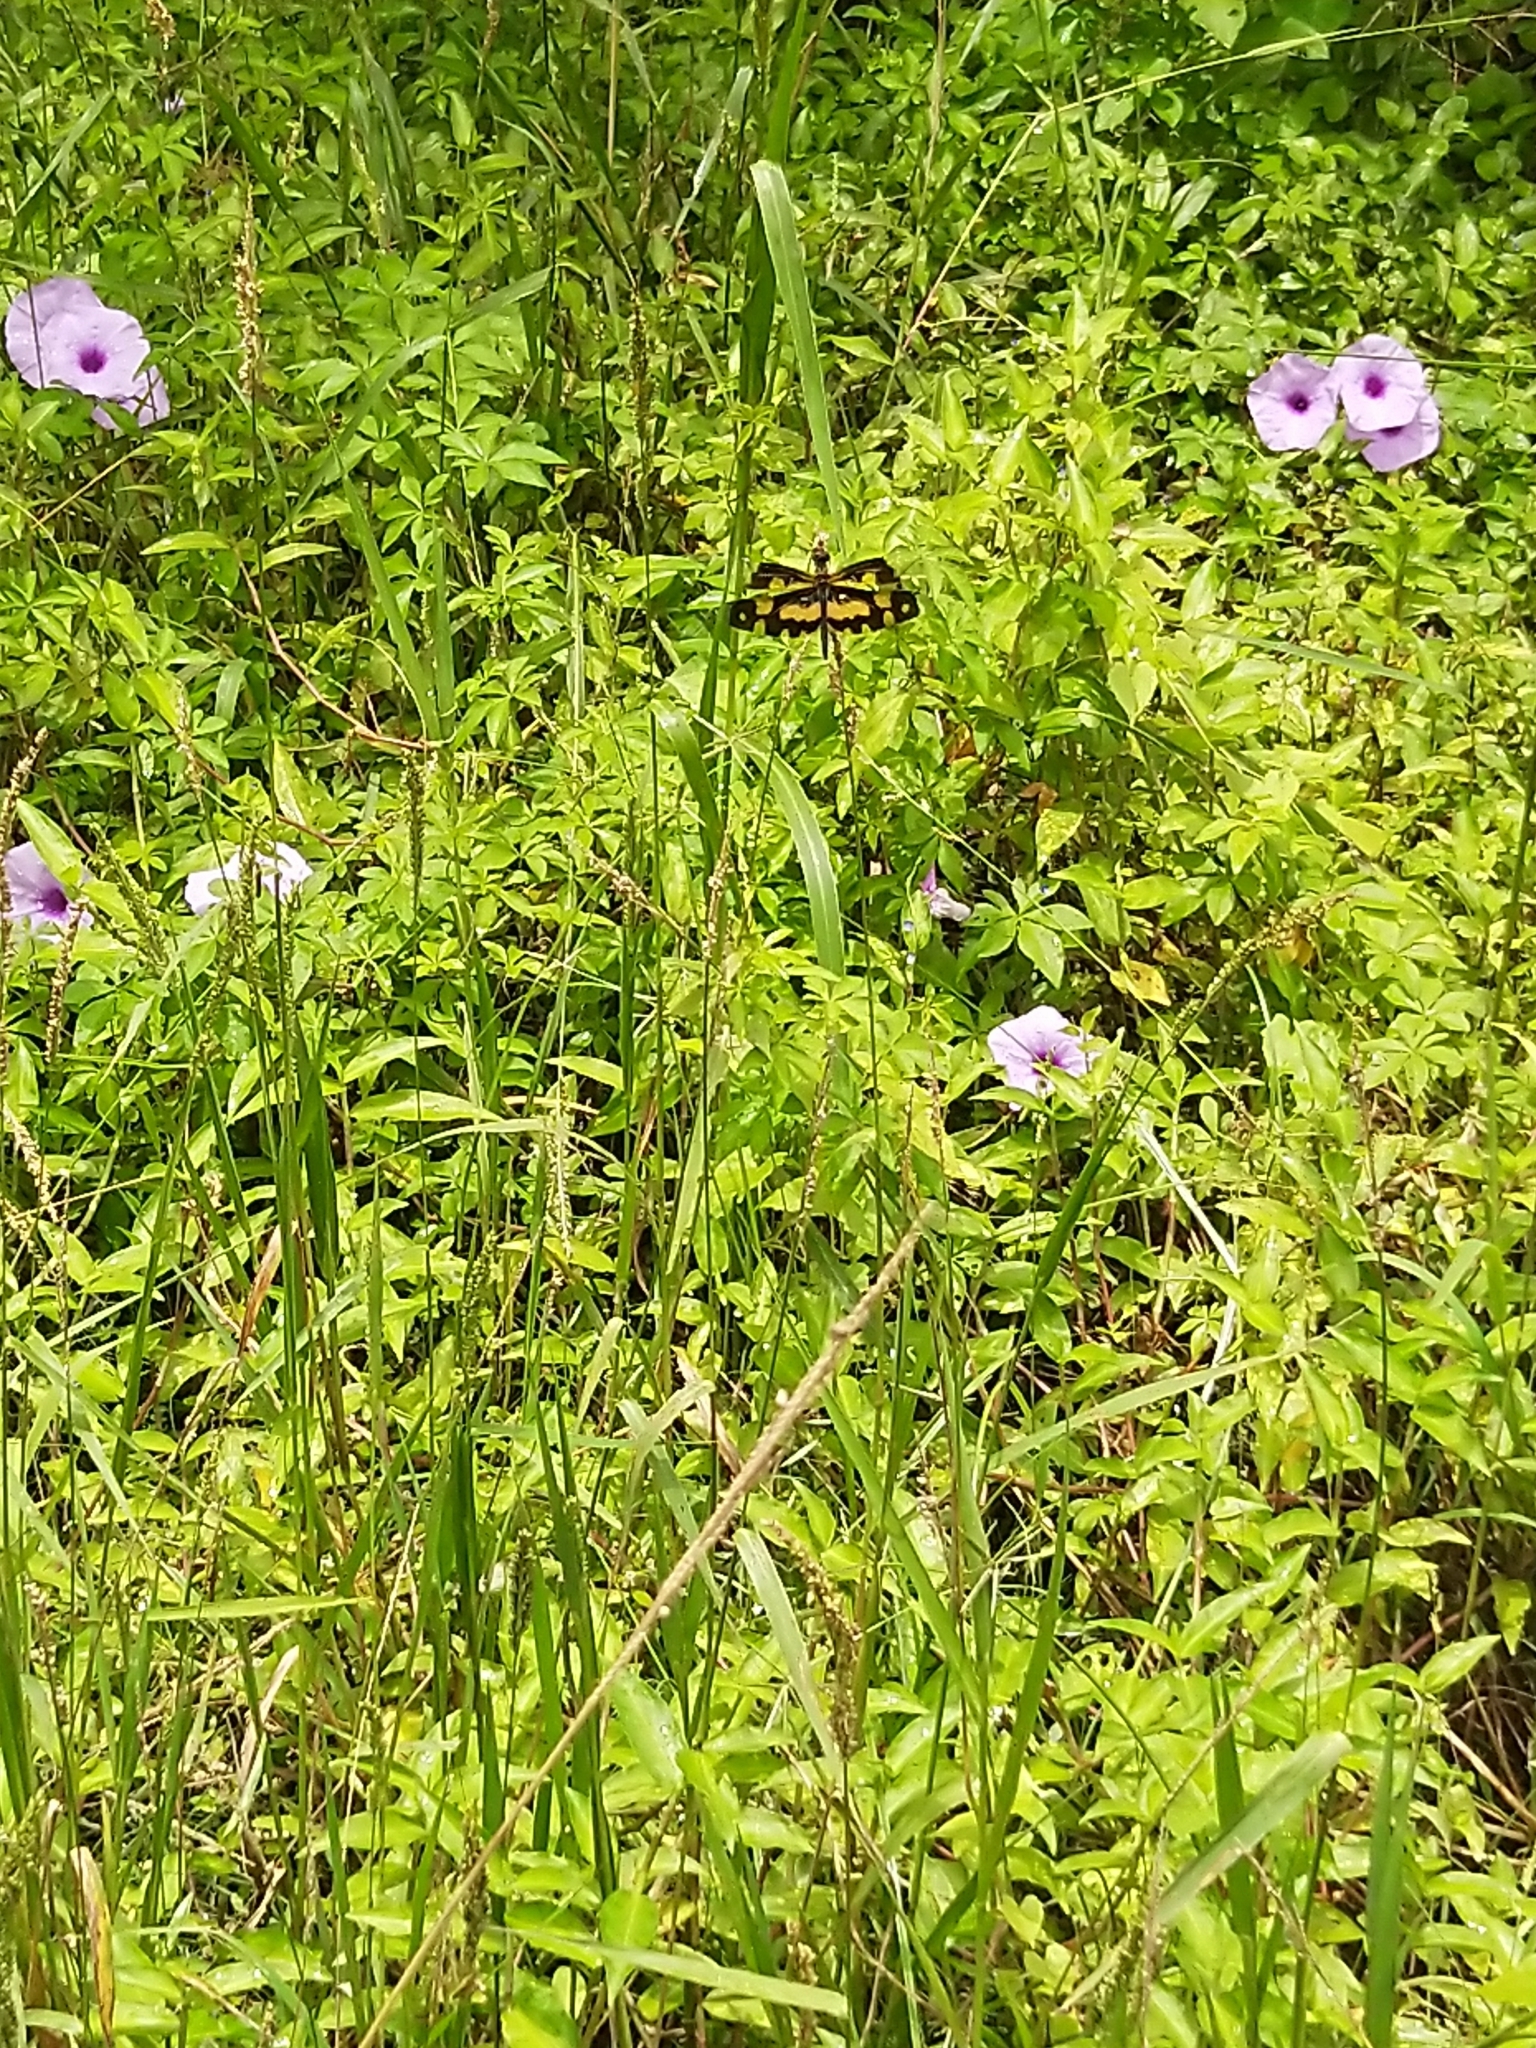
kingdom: Animalia
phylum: Arthropoda
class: Insecta
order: Odonata
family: Libellulidae
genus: Rhyothemis
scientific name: Rhyothemis variegata
